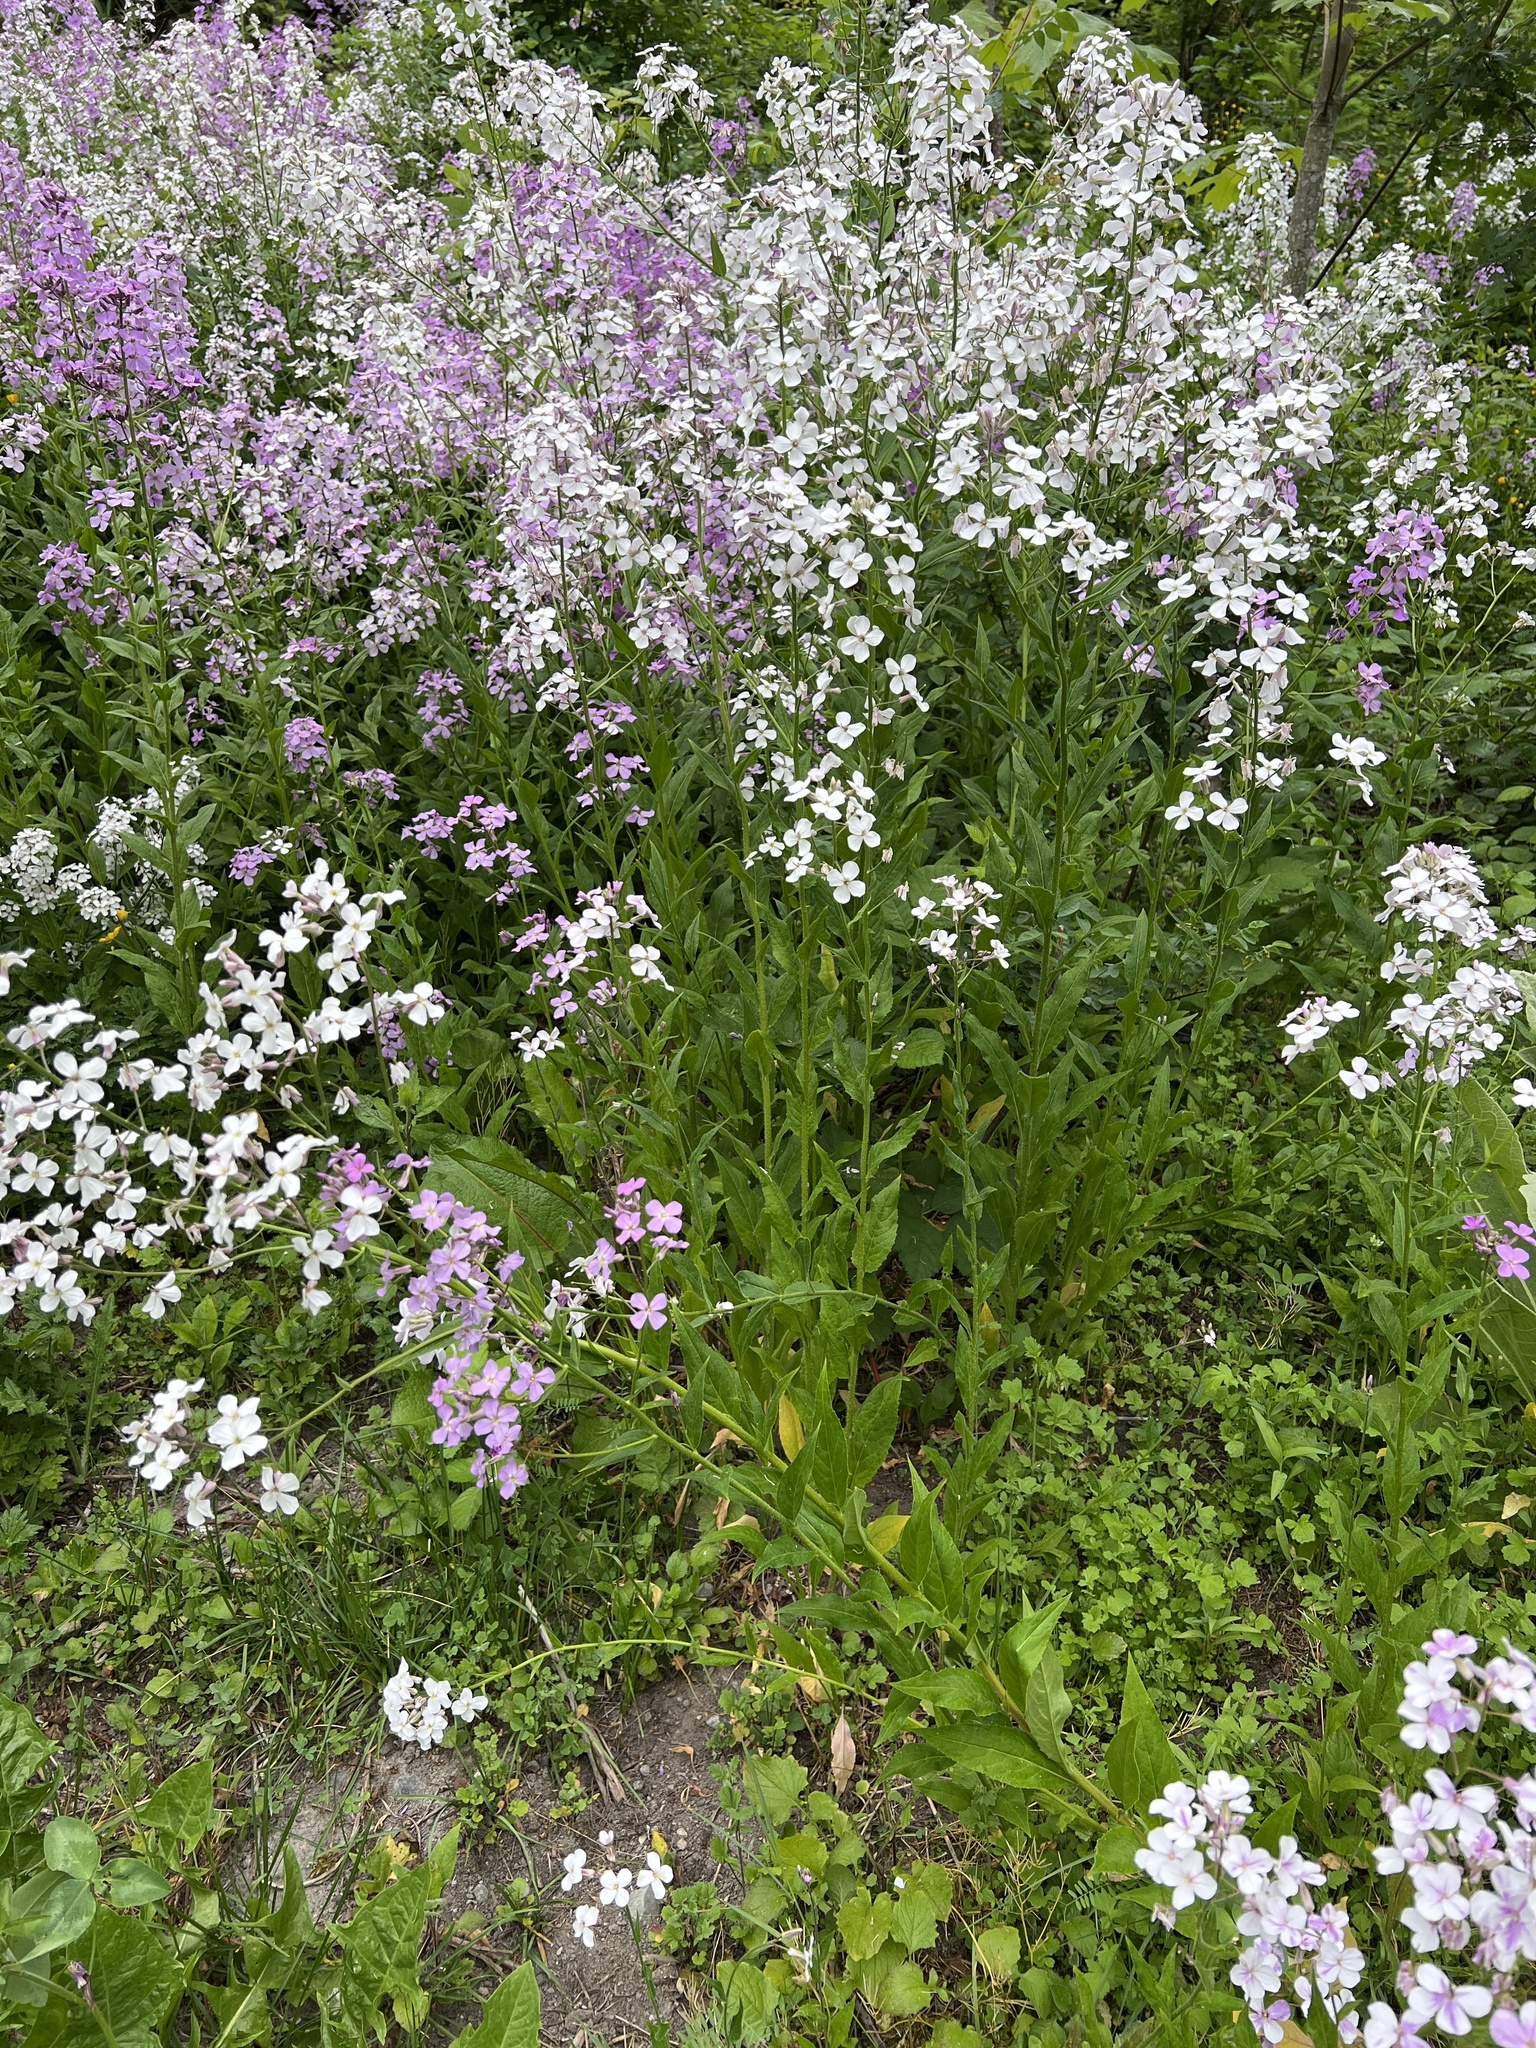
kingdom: Plantae
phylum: Tracheophyta
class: Magnoliopsida
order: Brassicales
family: Brassicaceae
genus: Hesperis
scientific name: Hesperis matronalis
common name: Dame's-violet
